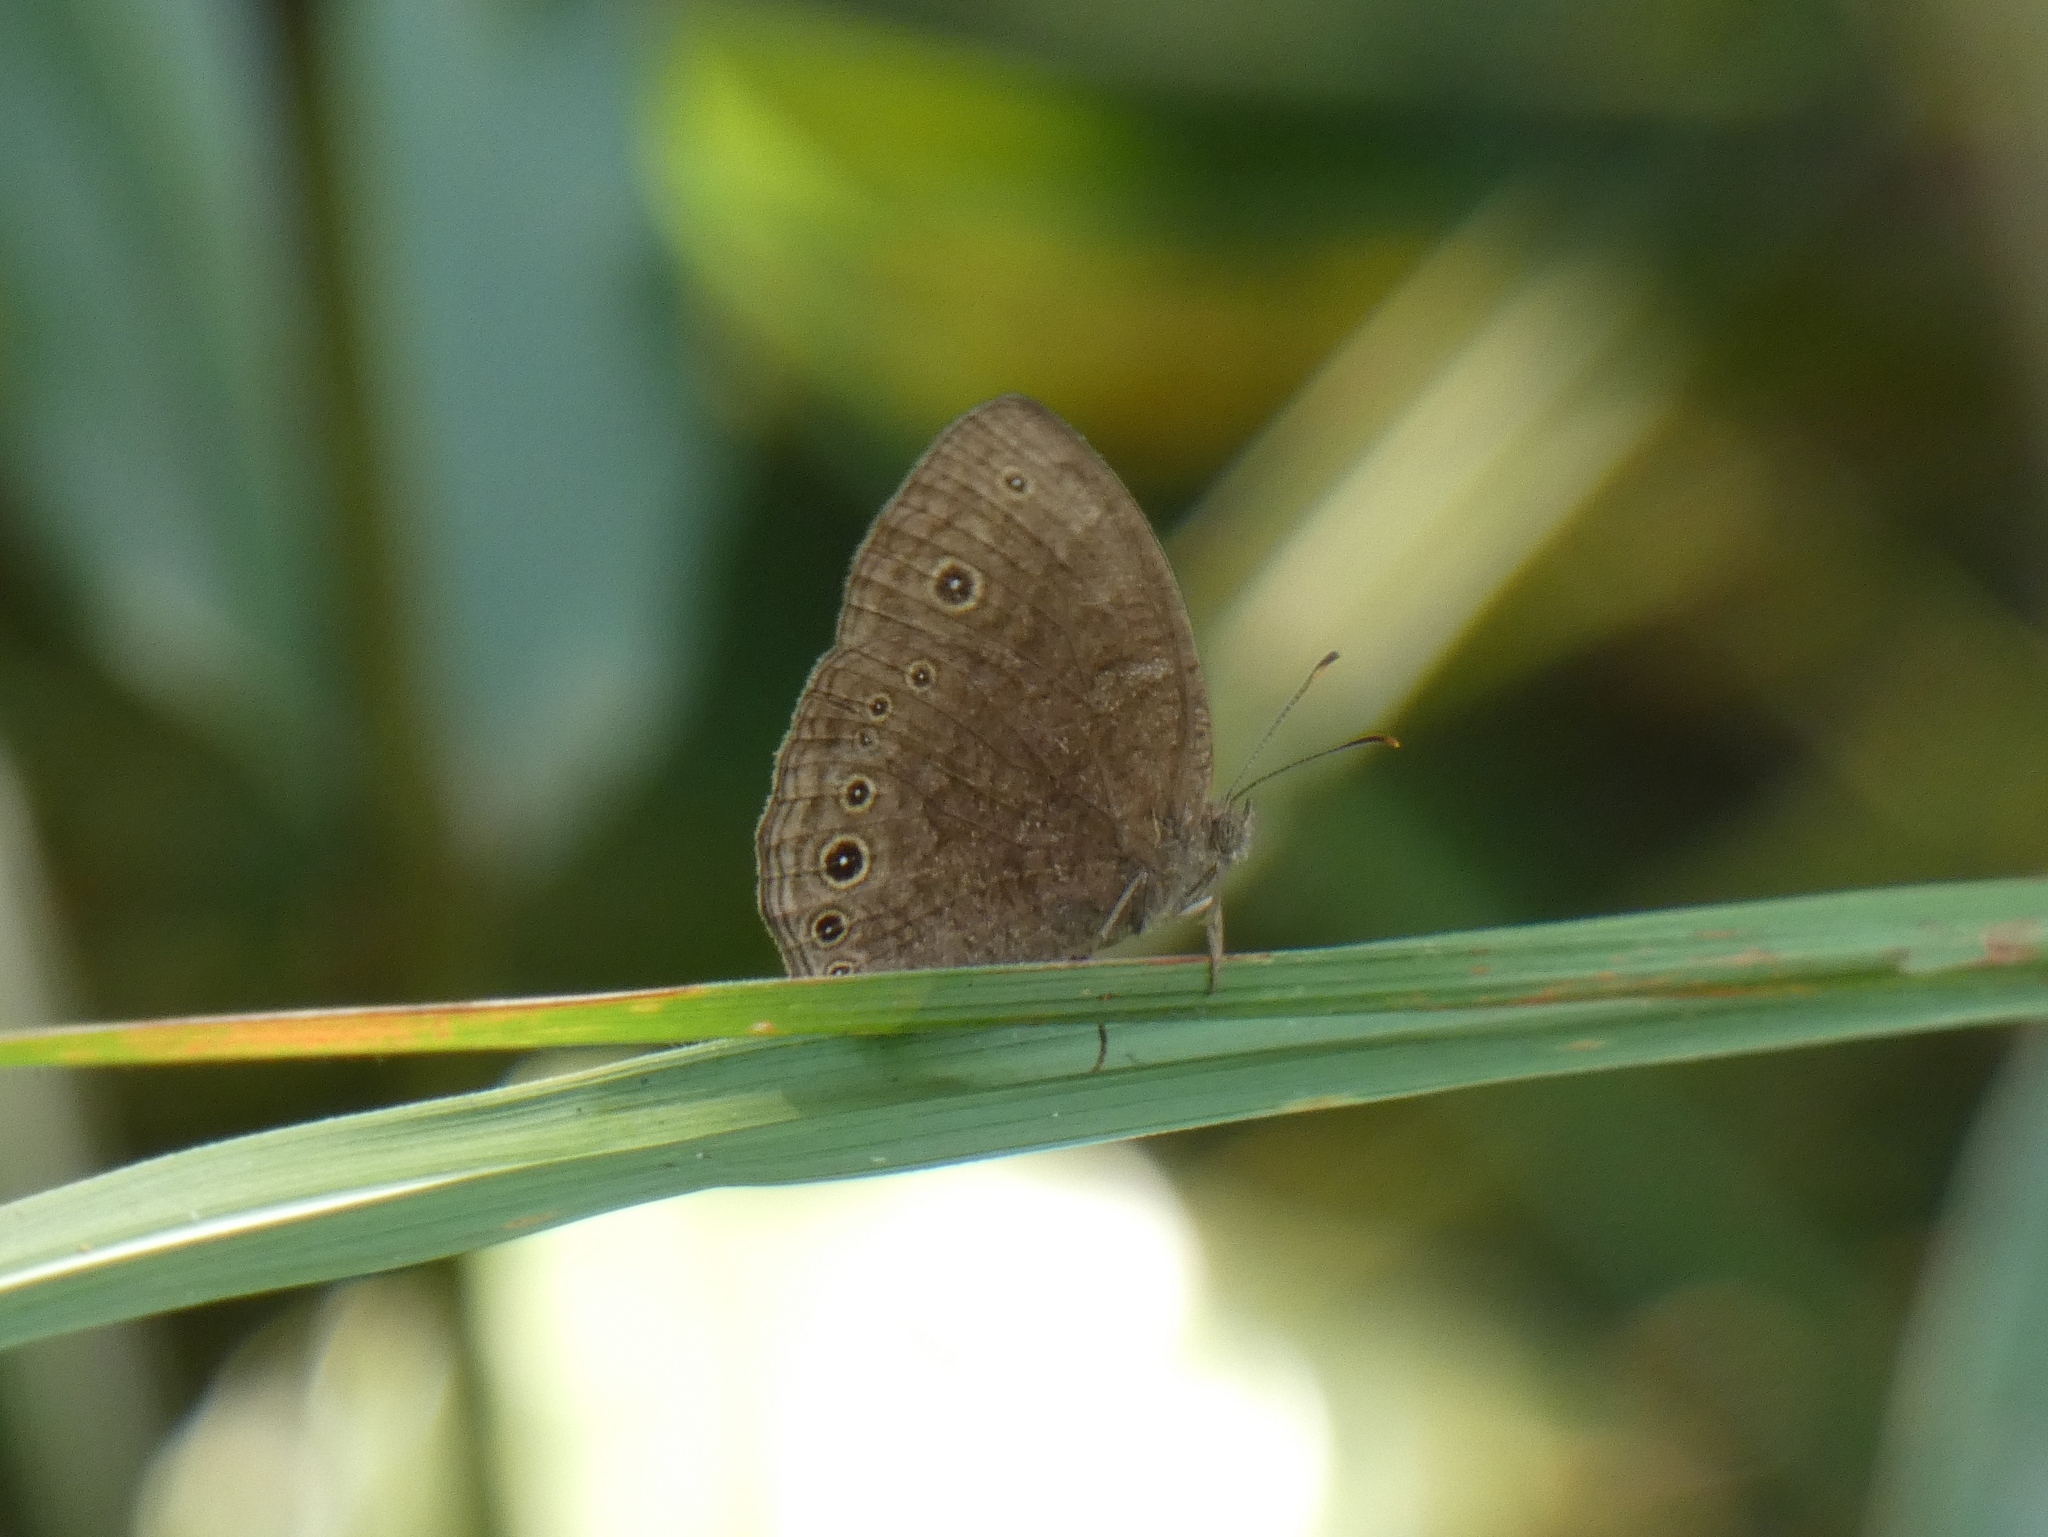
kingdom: Animalia
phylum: Arthropoda
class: Insecta
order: Lepidoptera
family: Nymphalidae
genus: Mycalesis
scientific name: Mycalesis vulgaris
